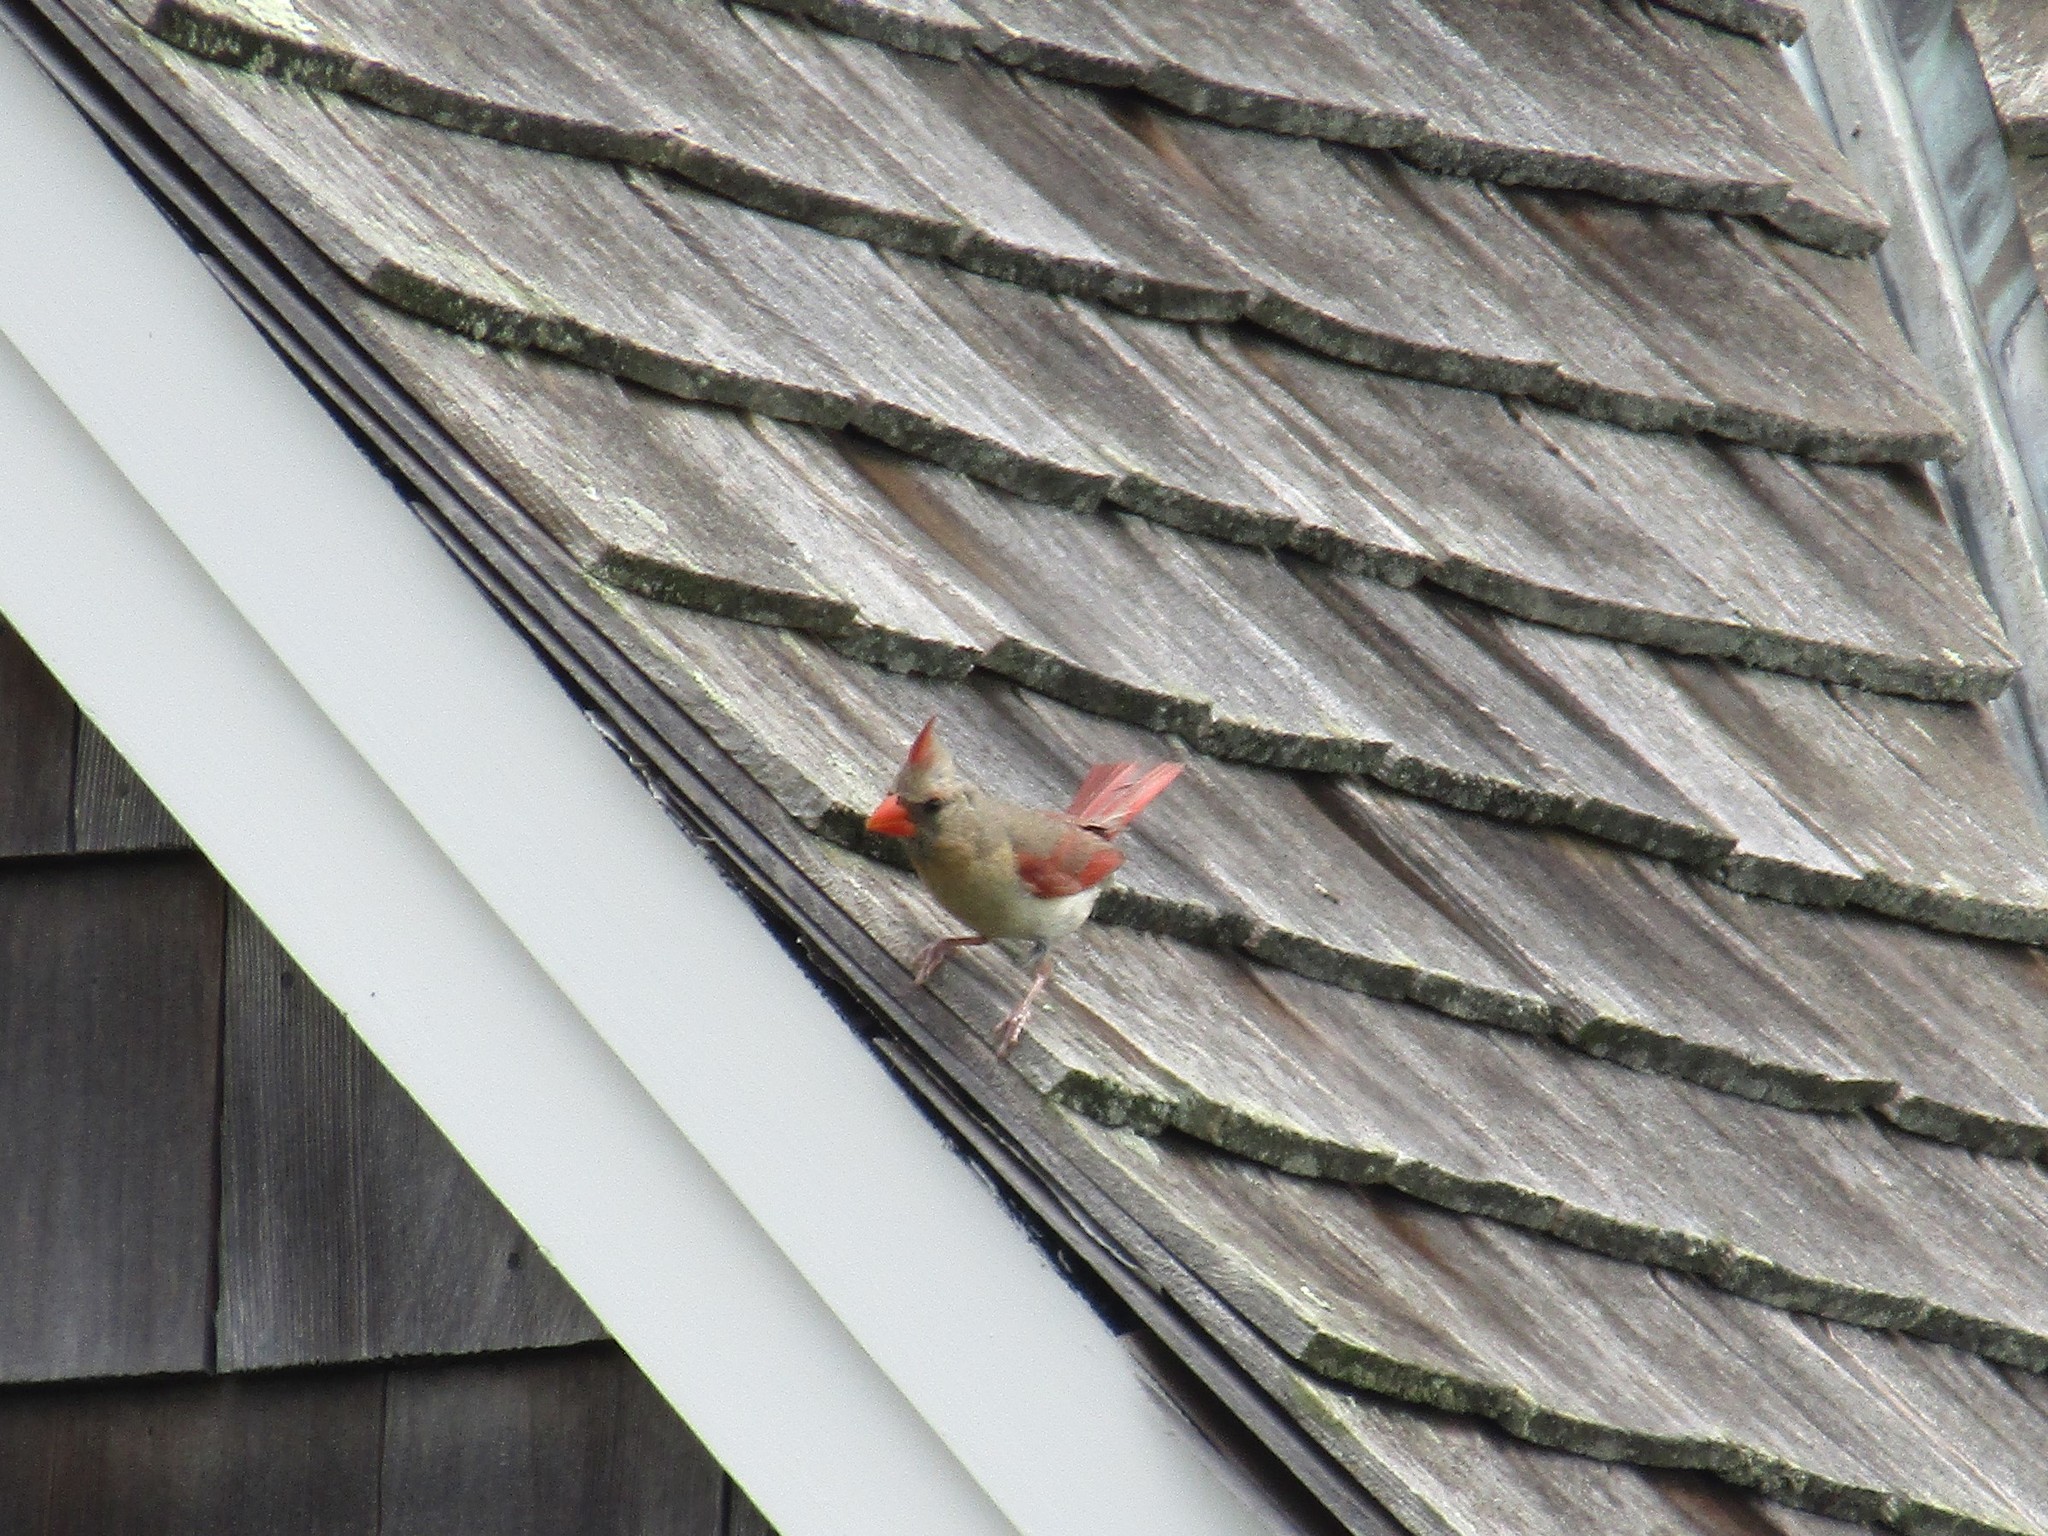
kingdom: Animalia
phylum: Chordata
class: Aves
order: Passeriformes
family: Cardinalidae
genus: Cardinalis
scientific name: Cardinalis cardinalis
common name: Northern cardinal
